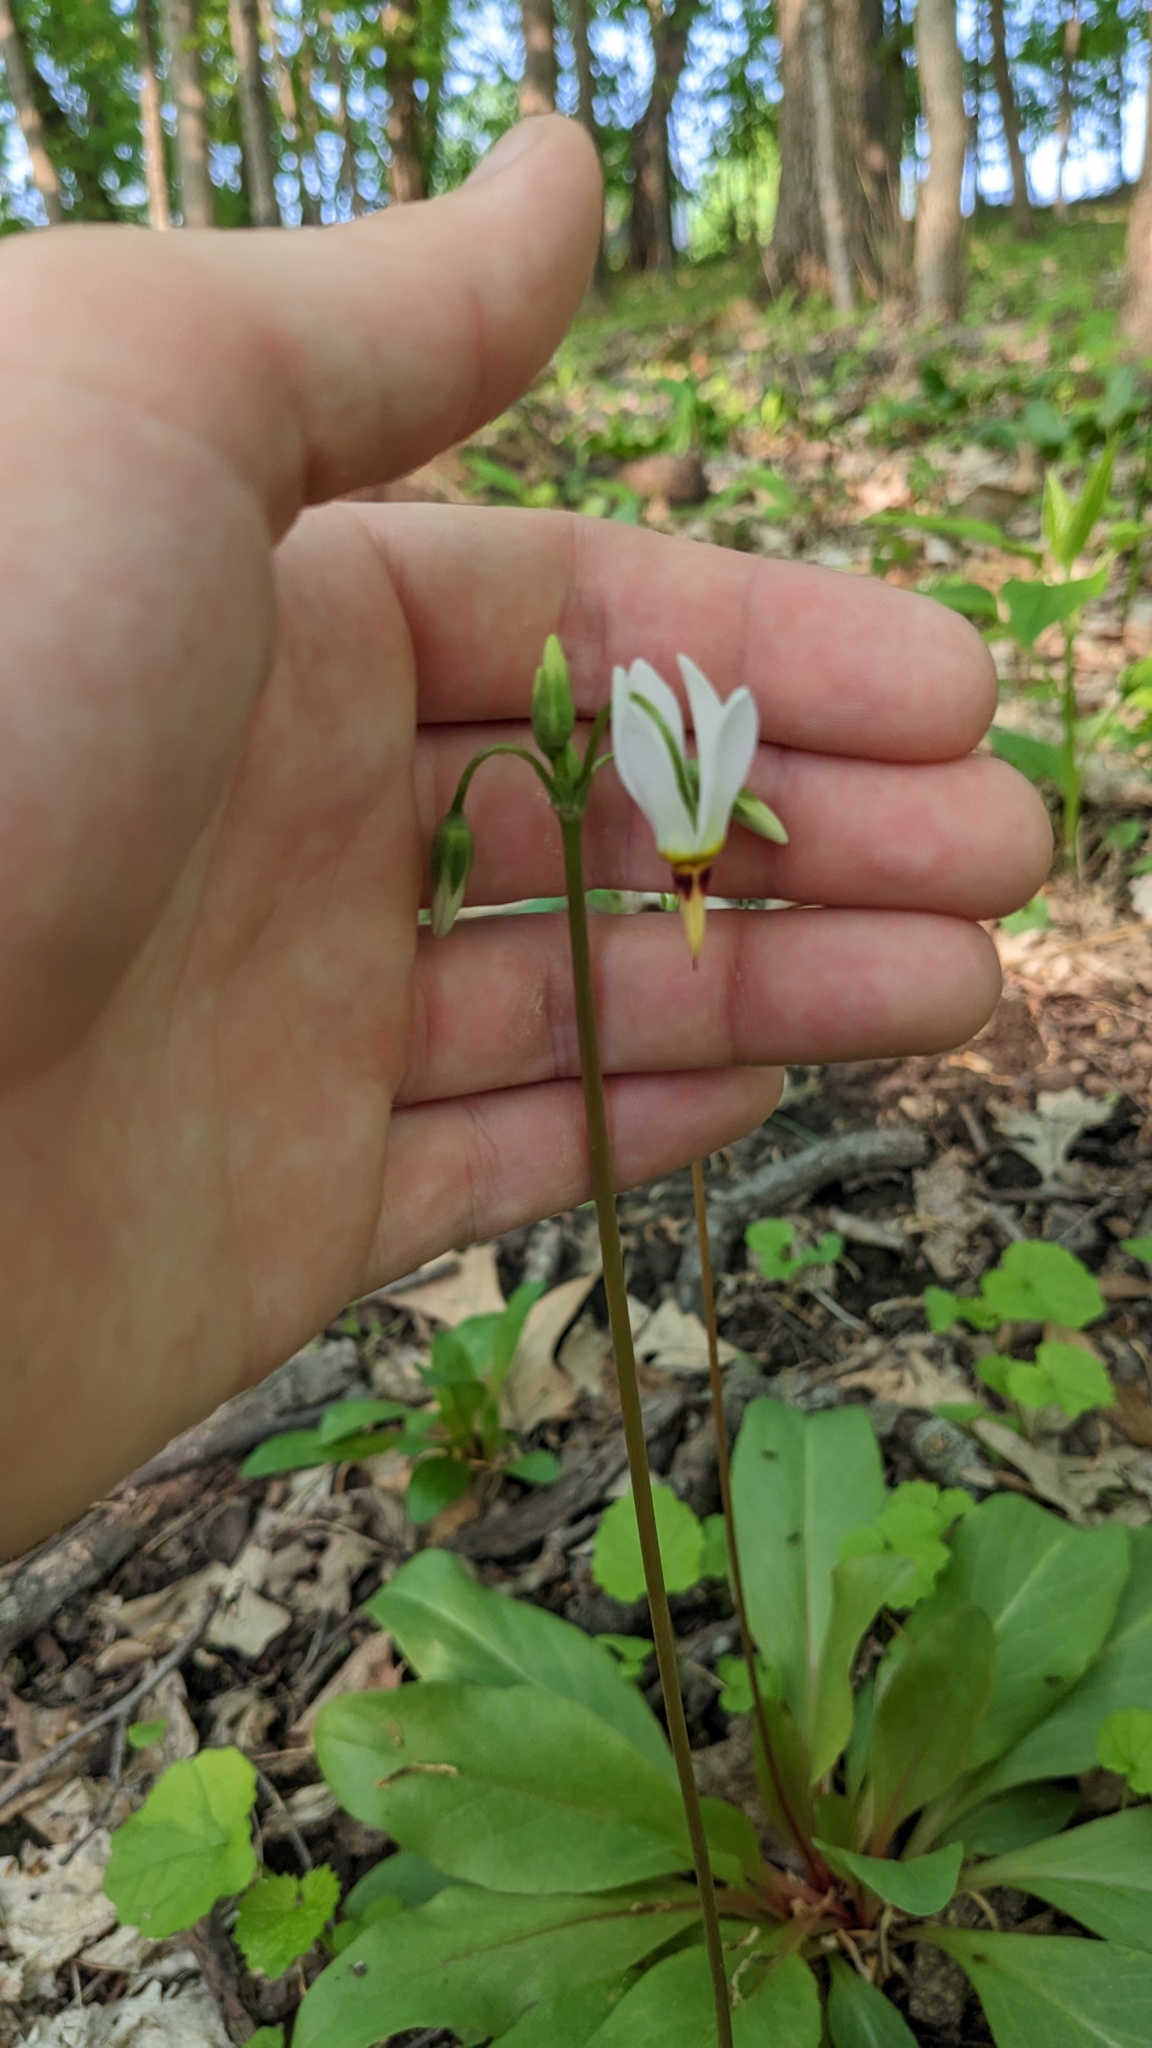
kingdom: Plantae
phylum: Tracheophyta
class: Magnoliopsida
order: Ericales
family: Primulaceae
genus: Dodecatheon
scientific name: Dodecatheon meadia
